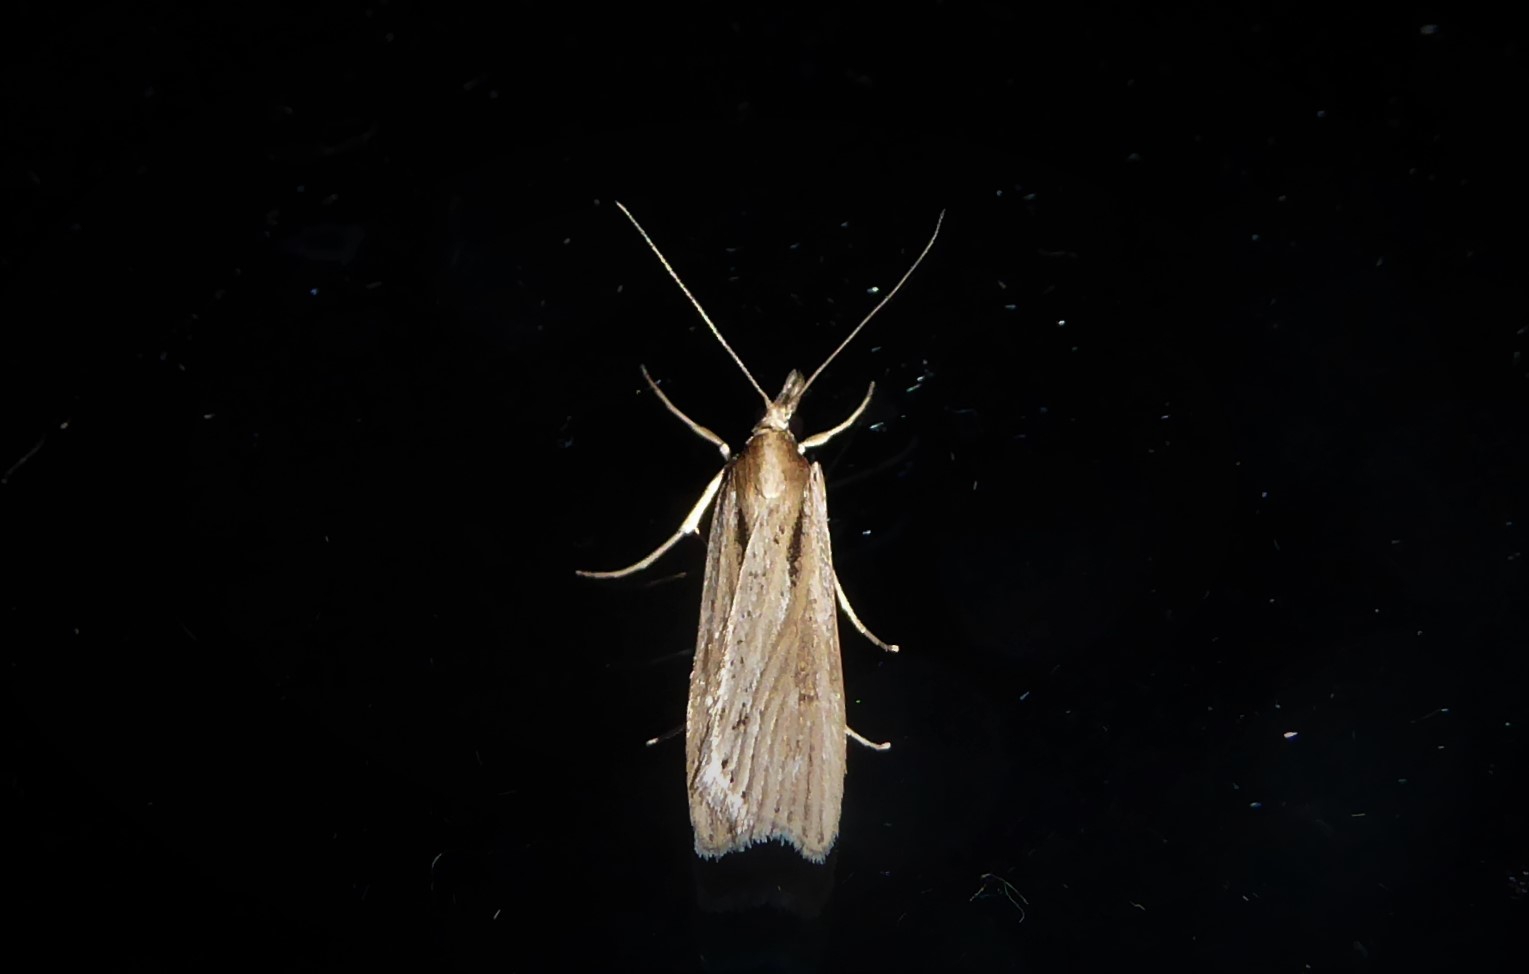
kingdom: Animalia
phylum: Arthropoda
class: Insecta
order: Lepidoptera
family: Crambidae
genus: Eudonia
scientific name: Eudonia sabulosella
